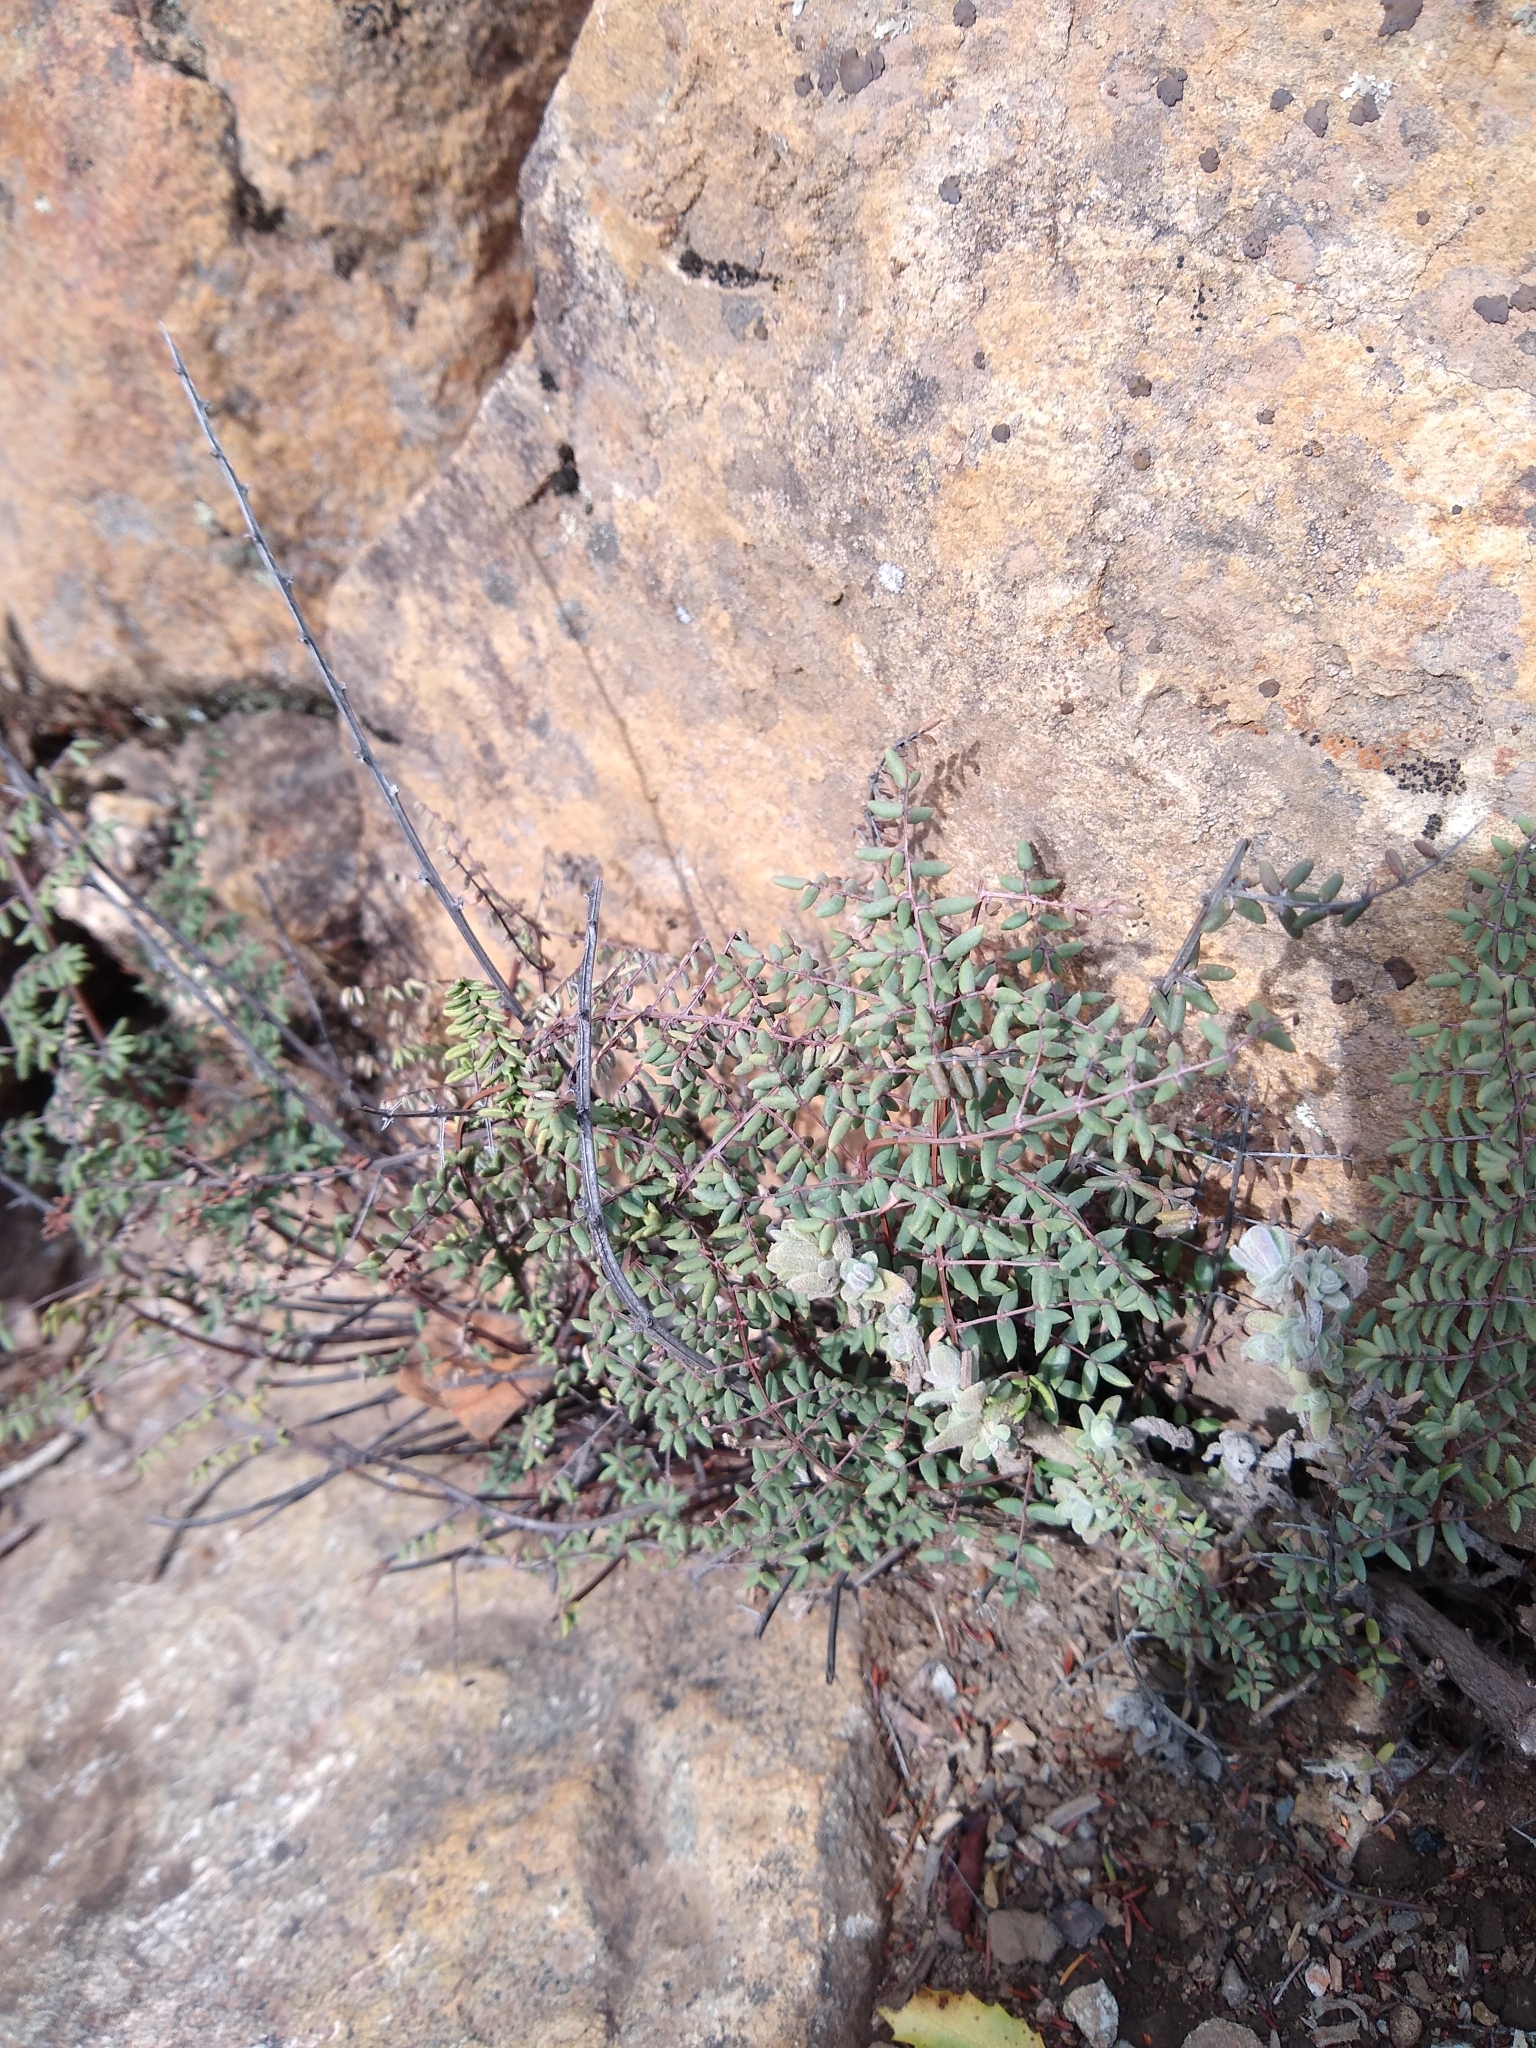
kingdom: Plantae
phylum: Tracheophyta
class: Polypodiopsida
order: Polypodiales
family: Pteridaceae
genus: Pellaea
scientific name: Pellaea mucronata
